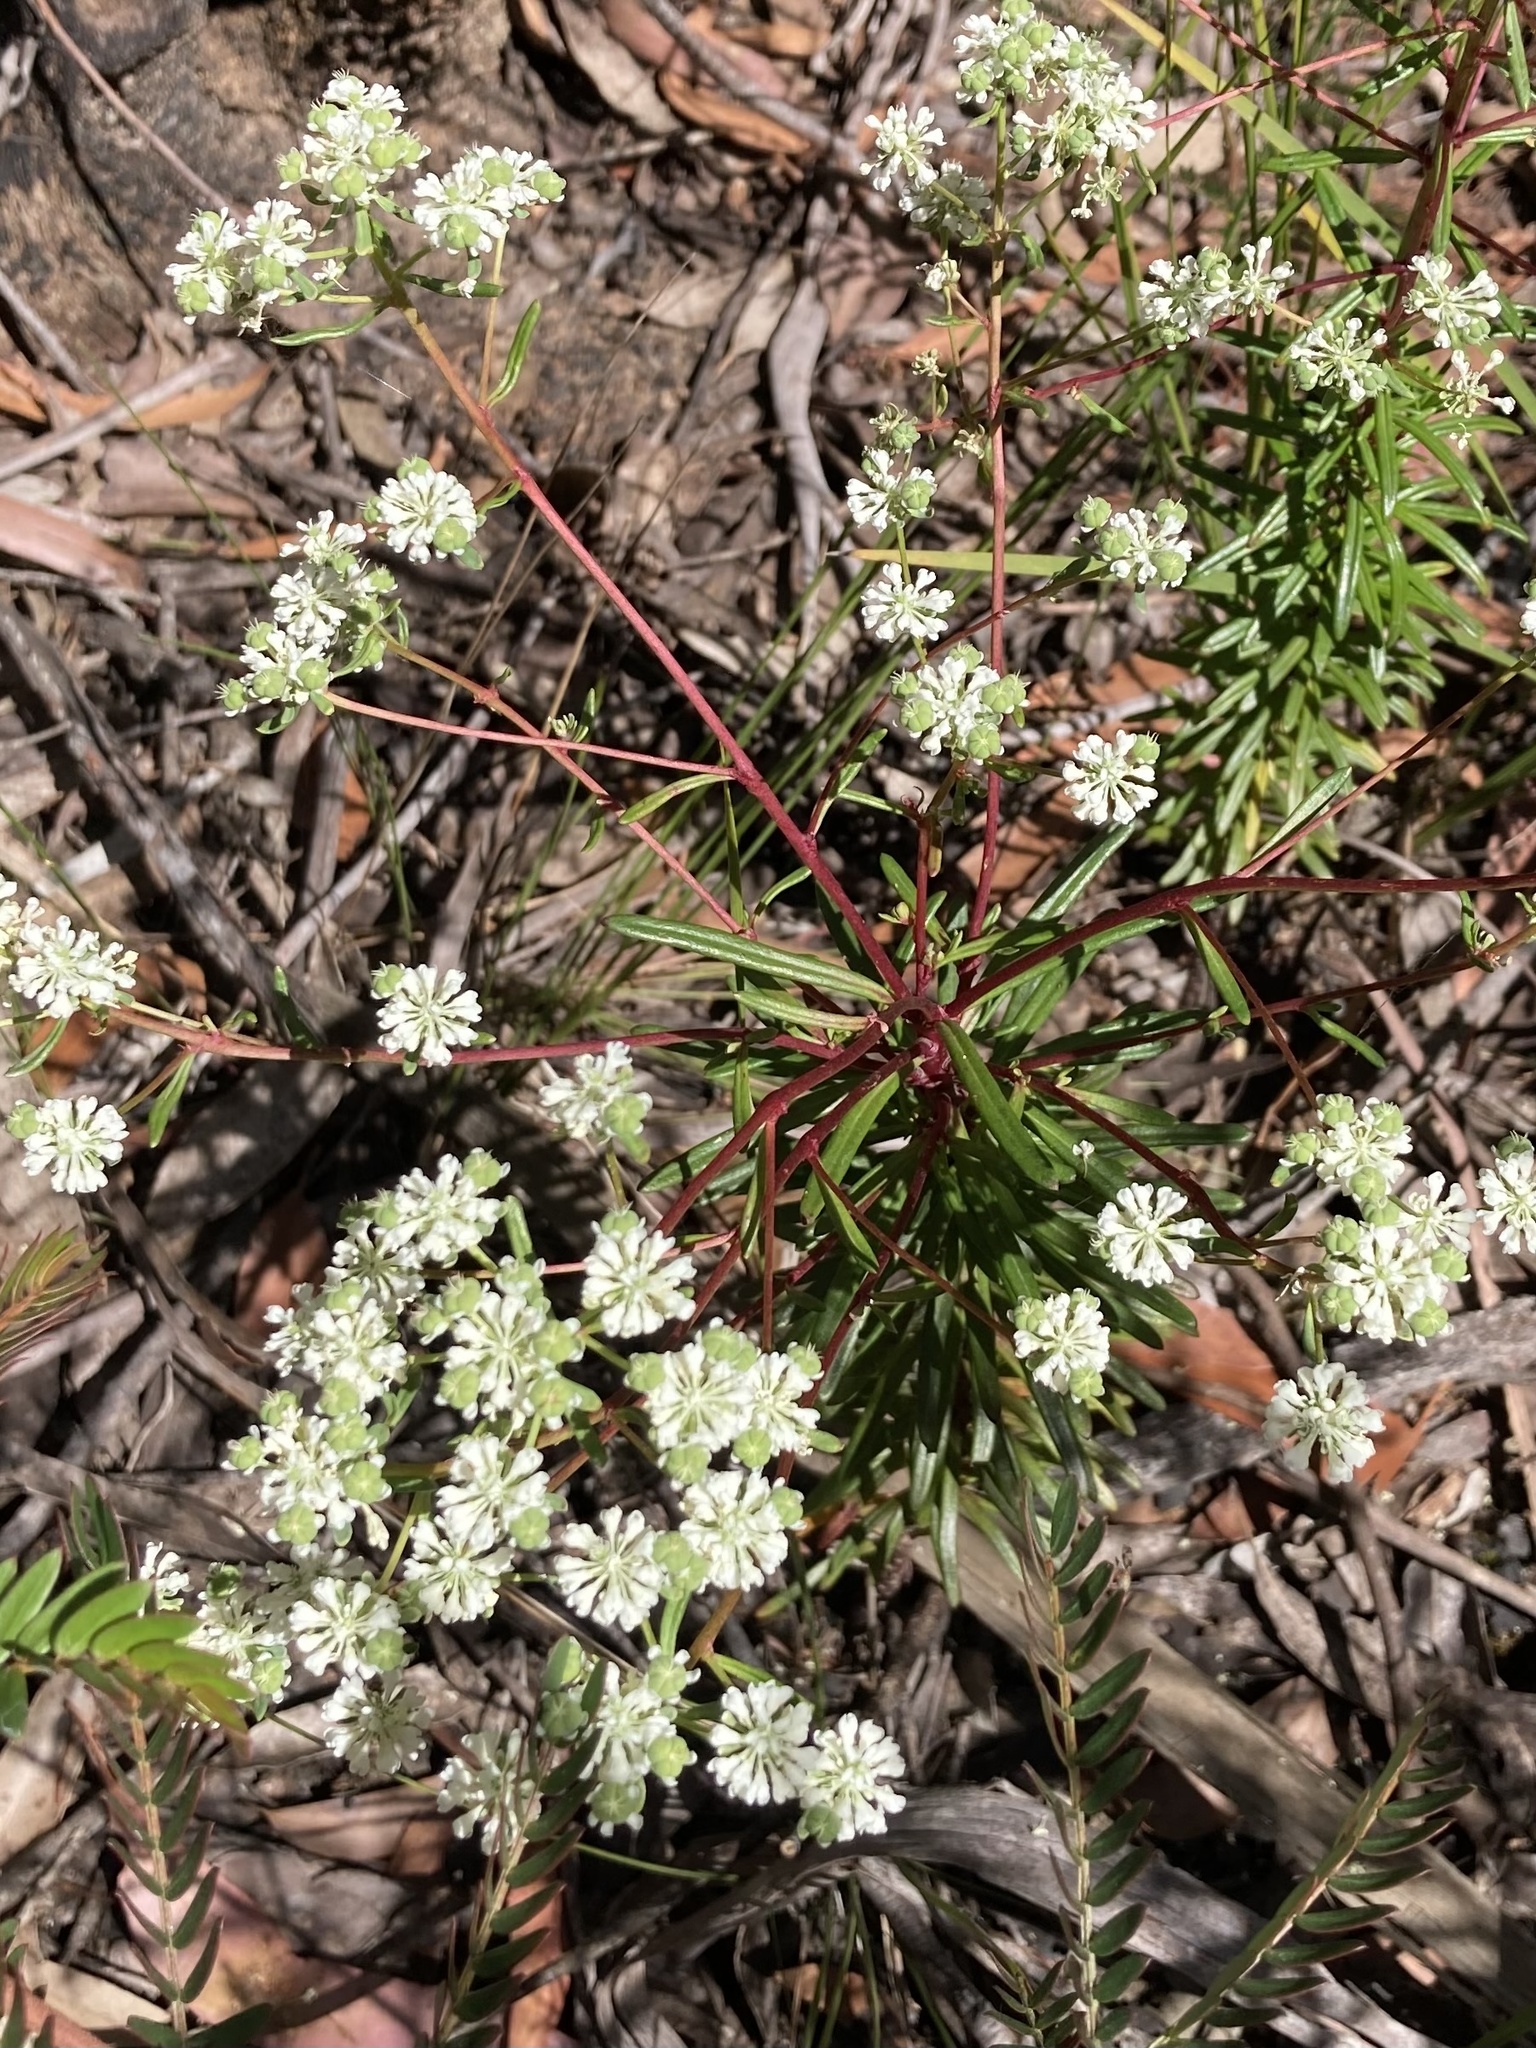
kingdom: Plantae
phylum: Tracheophyta
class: Magnoliopsida
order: Malpighiales
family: Phyllanthaceae
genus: Poranthera
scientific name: Poranthera corymbosa
